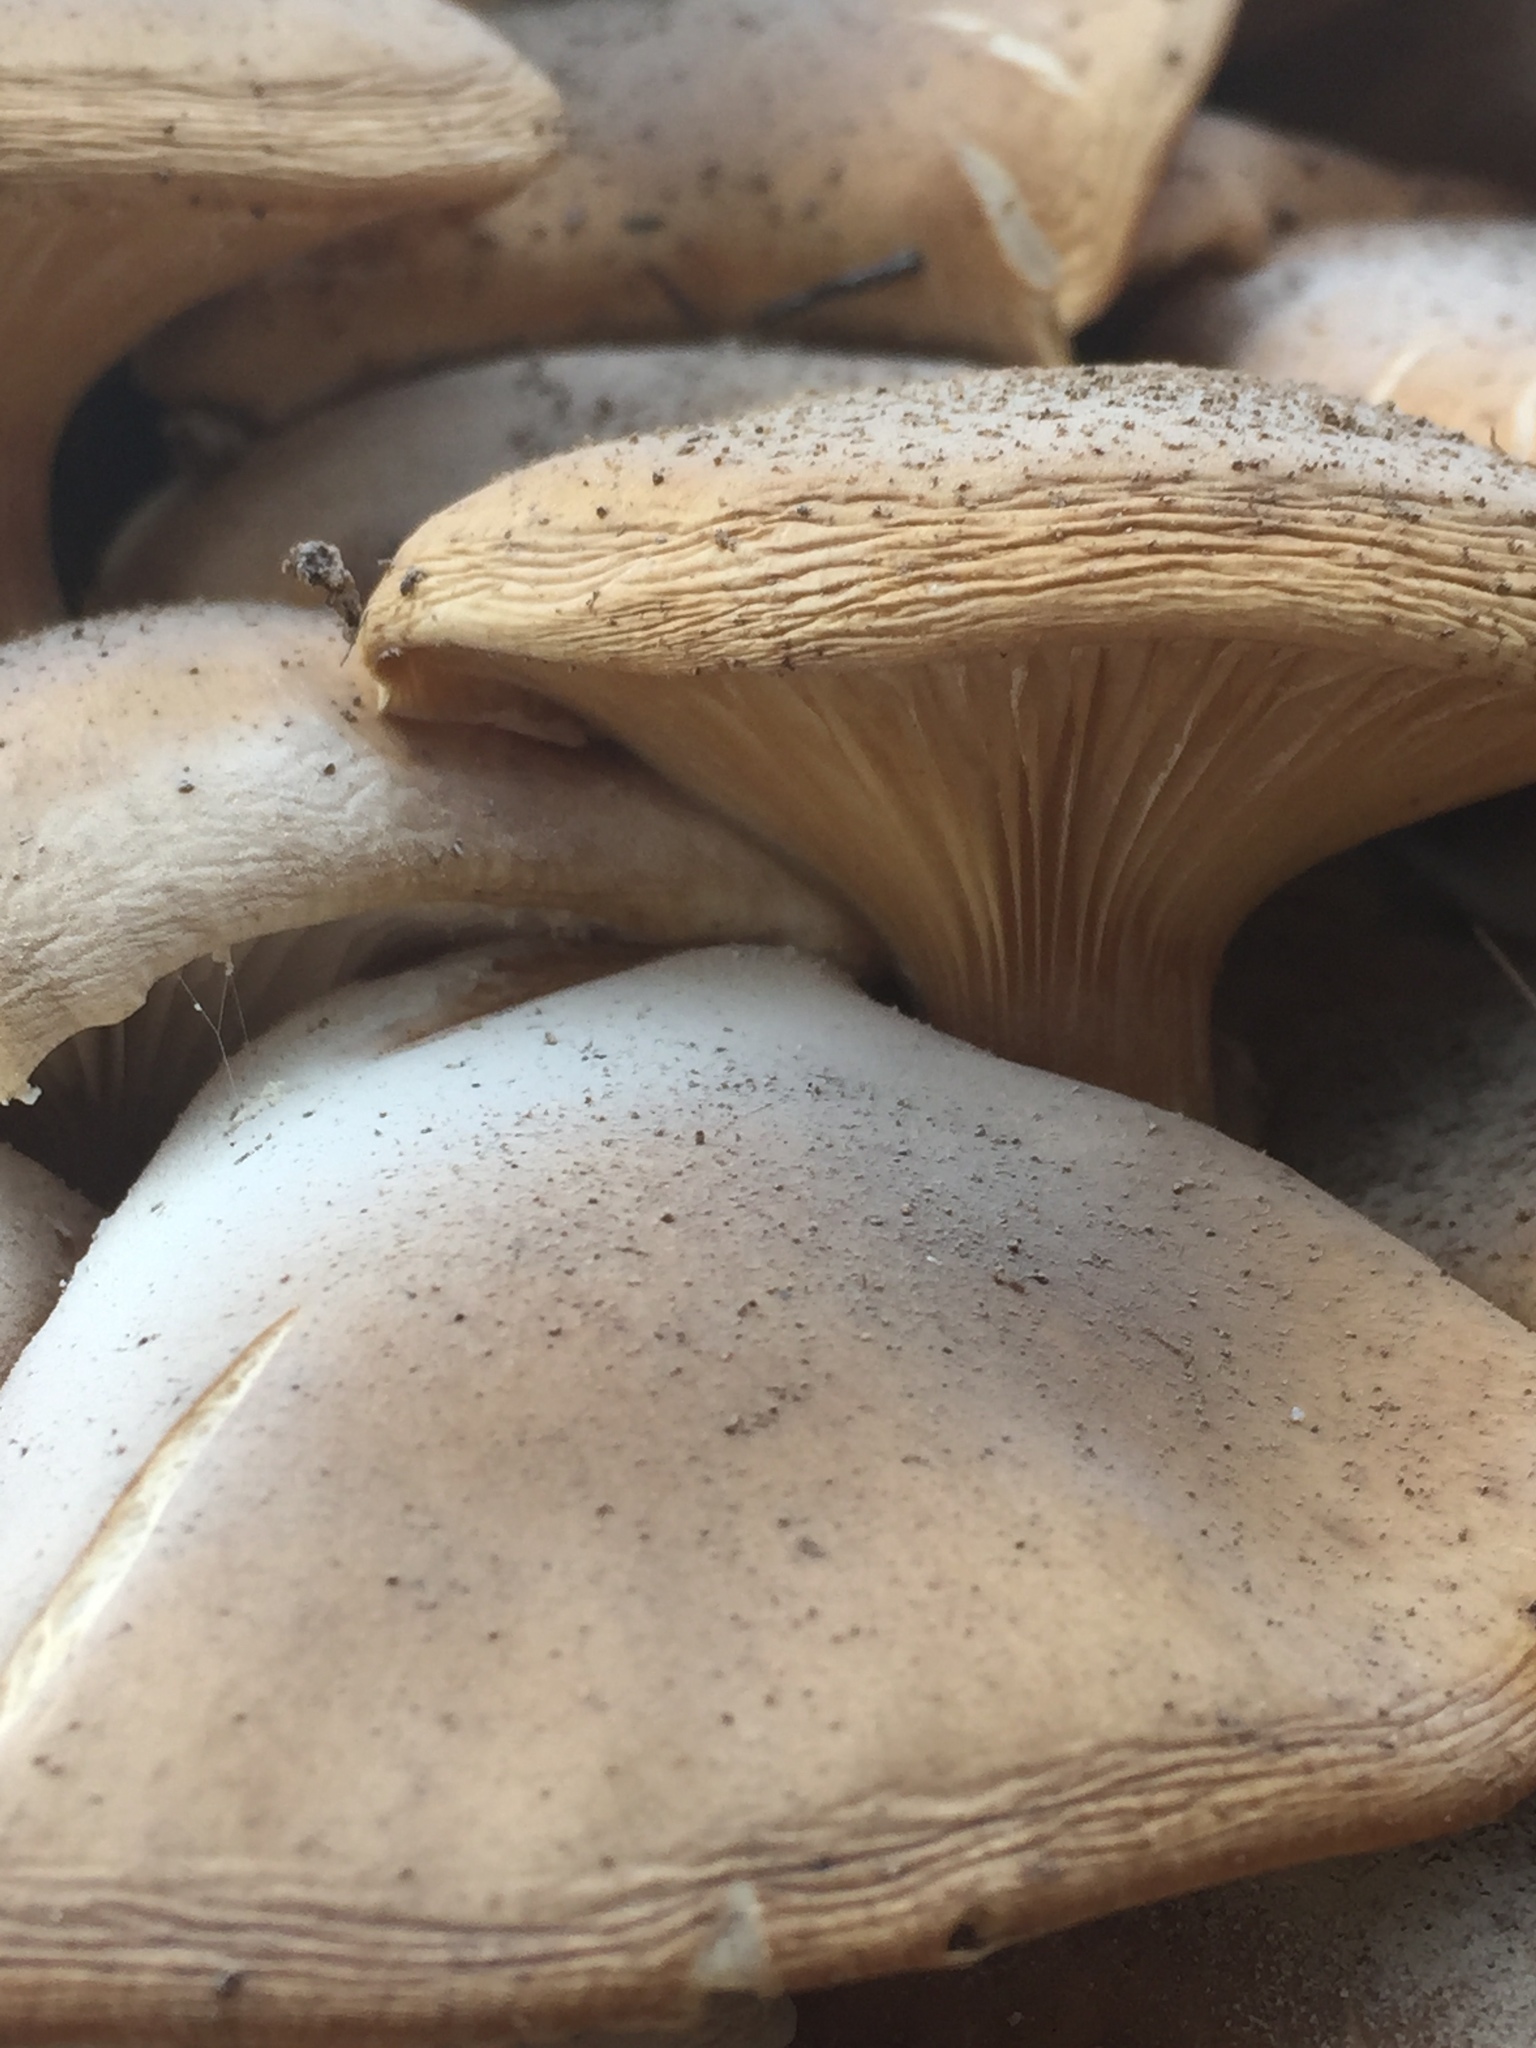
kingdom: Fungi
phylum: Basidiomycota
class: Agaricomycetes
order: Agaricales
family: Physalacriaceae
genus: Armillaria
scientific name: Armillaria mellea
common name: Honey fungus
